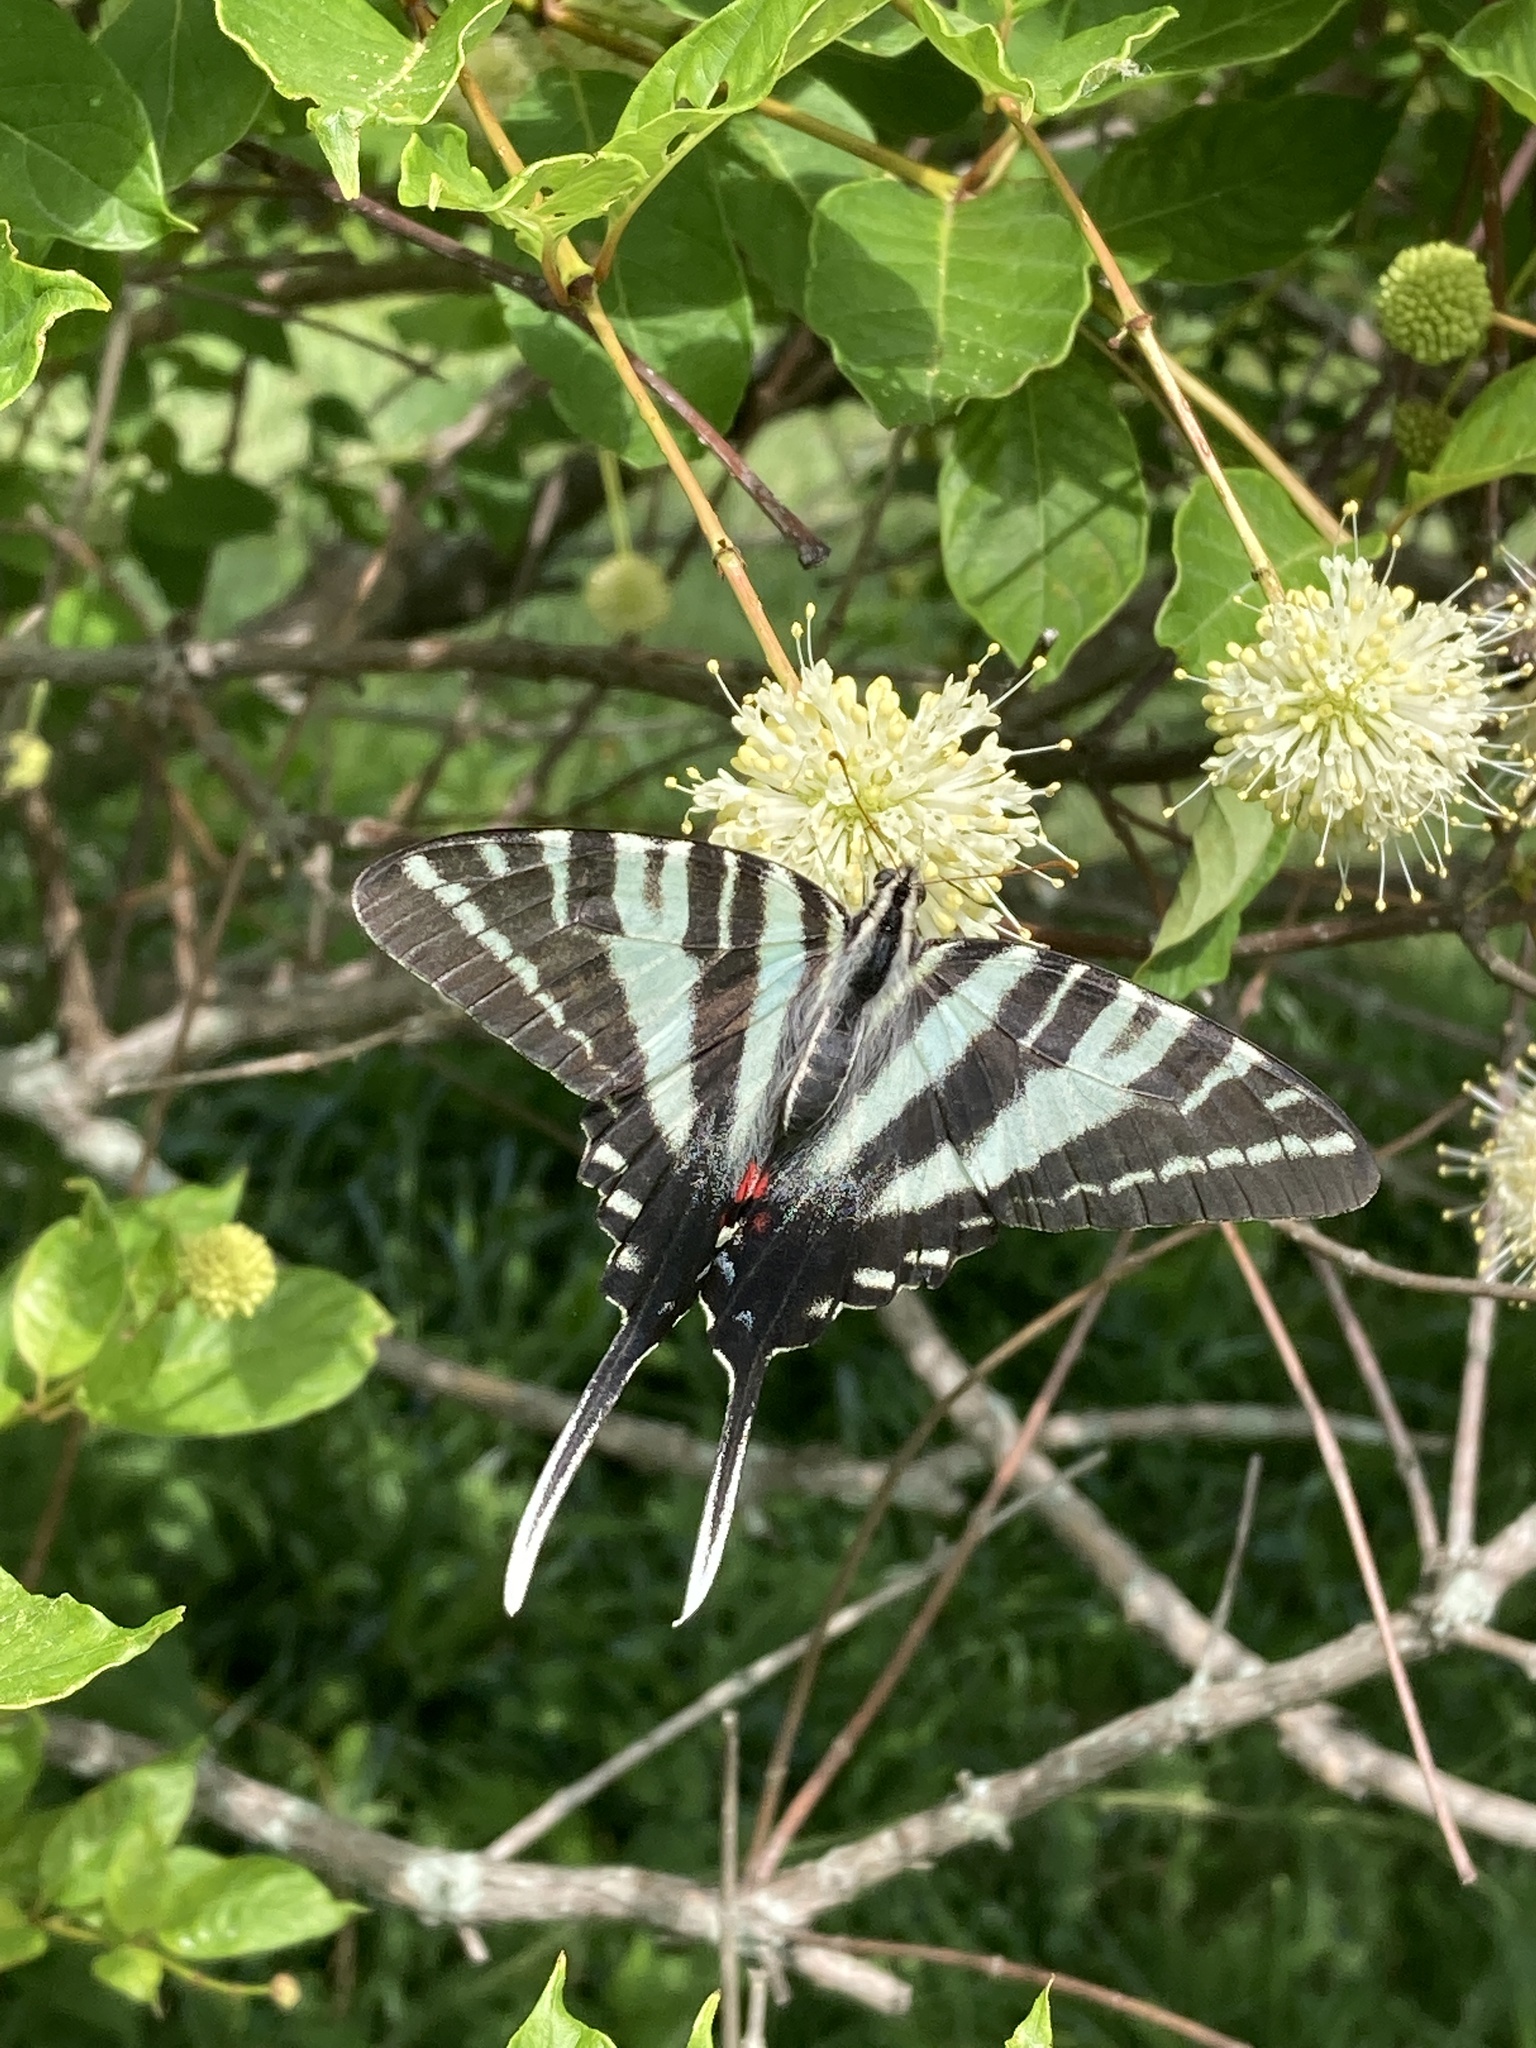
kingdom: Animalia
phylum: Arthropoda
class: Insecta
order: Lepidoptera
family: Papilionidae
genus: Protographium
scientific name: Protographium marcellus
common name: Zebra swallowtail
